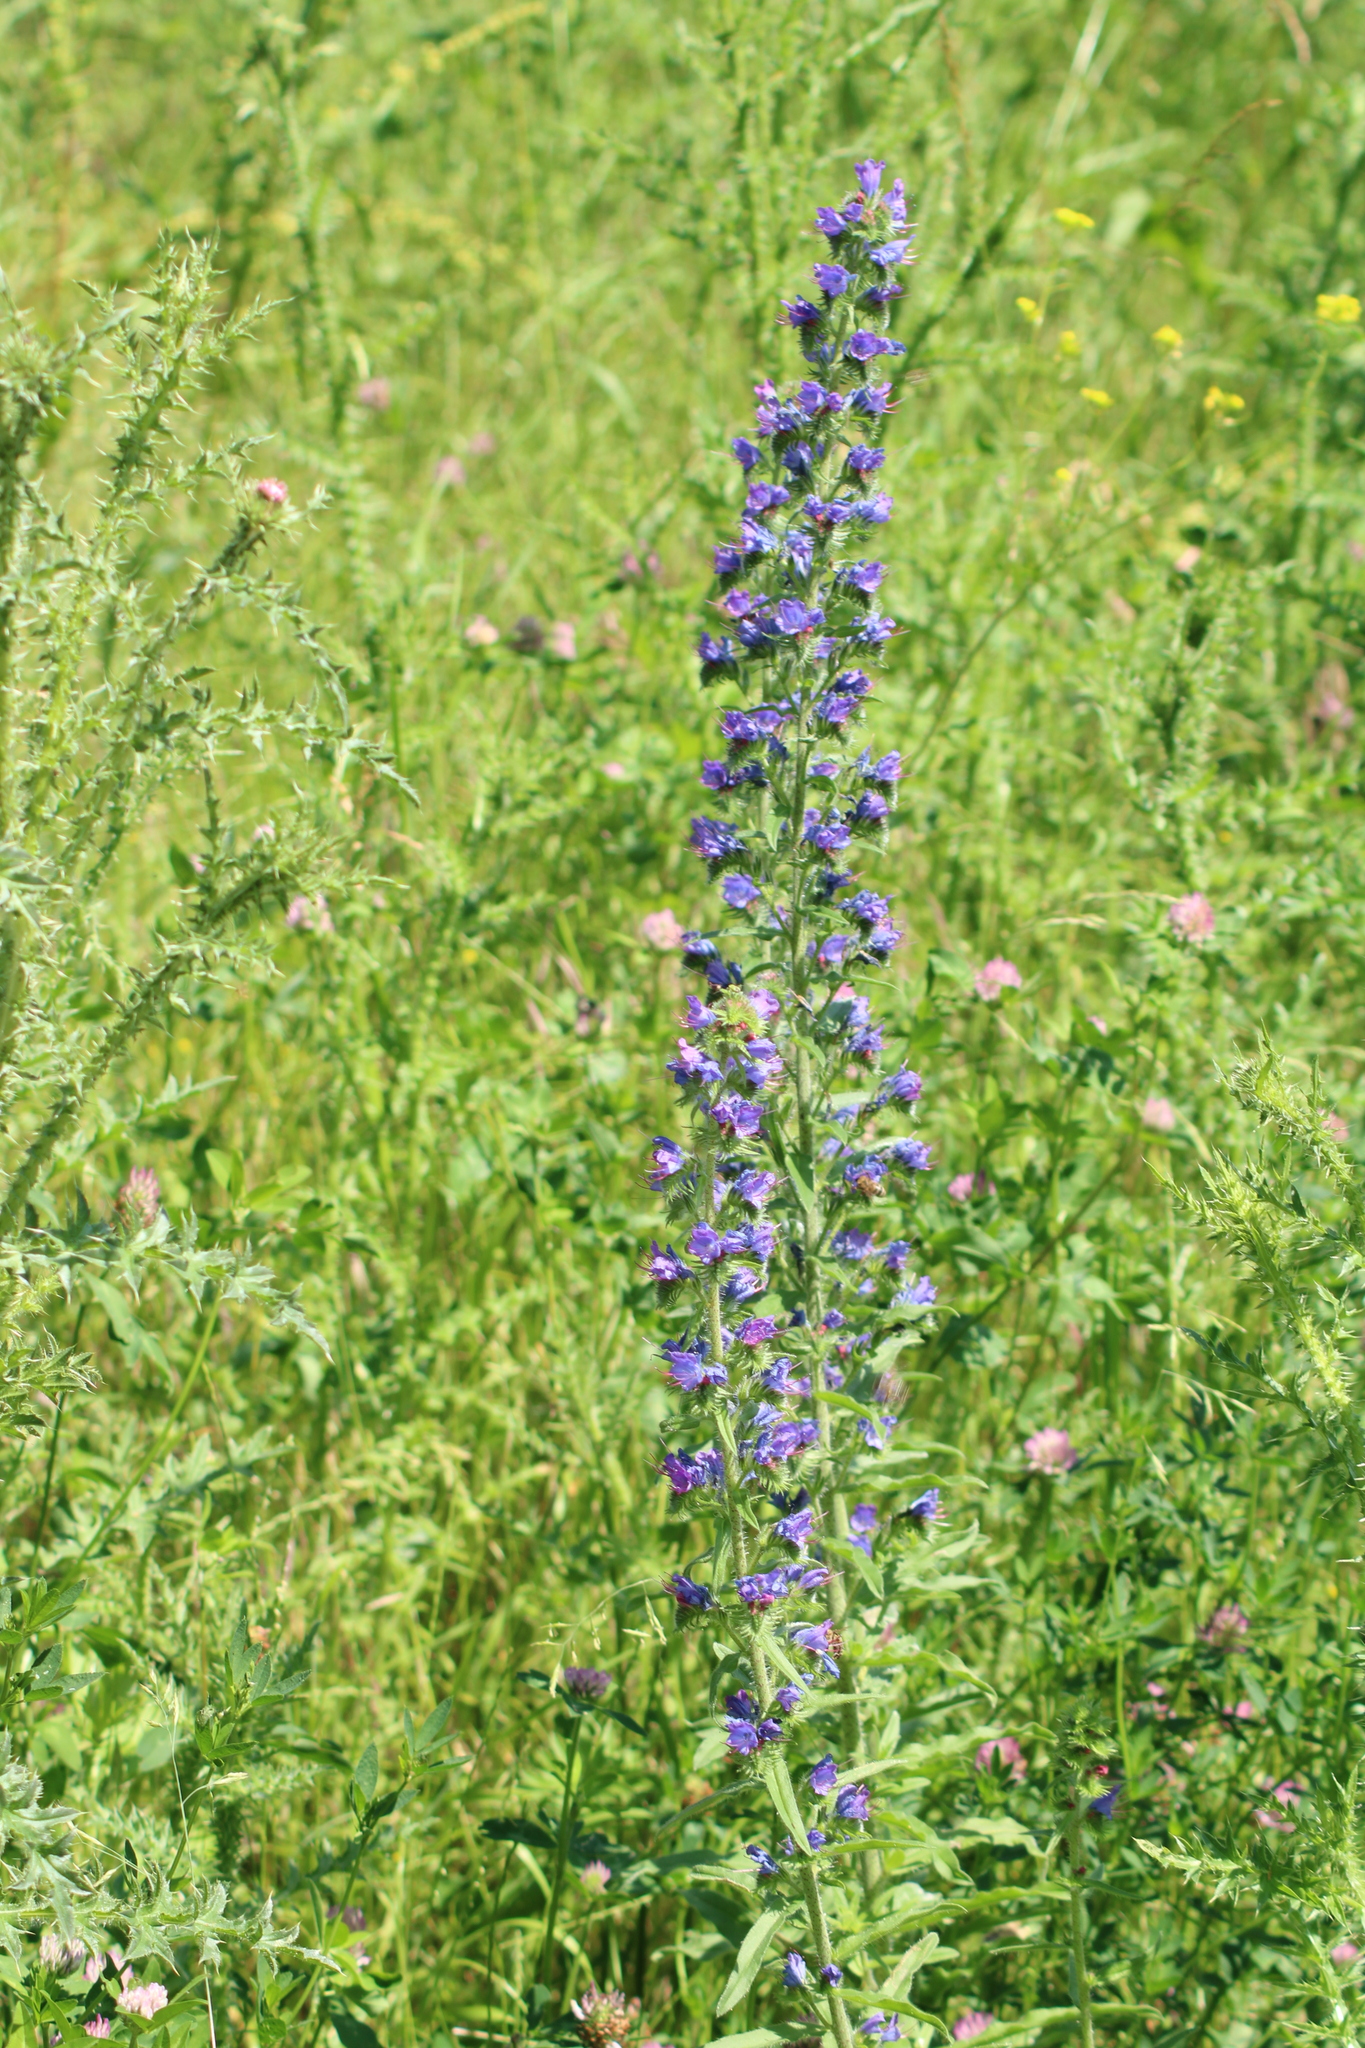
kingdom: Plantae
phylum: Tracheophyta
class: Magnoliopsida
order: Boraginales
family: Boraginaceae
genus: Echium
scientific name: Echium vulgare
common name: Common viper's bugloss
